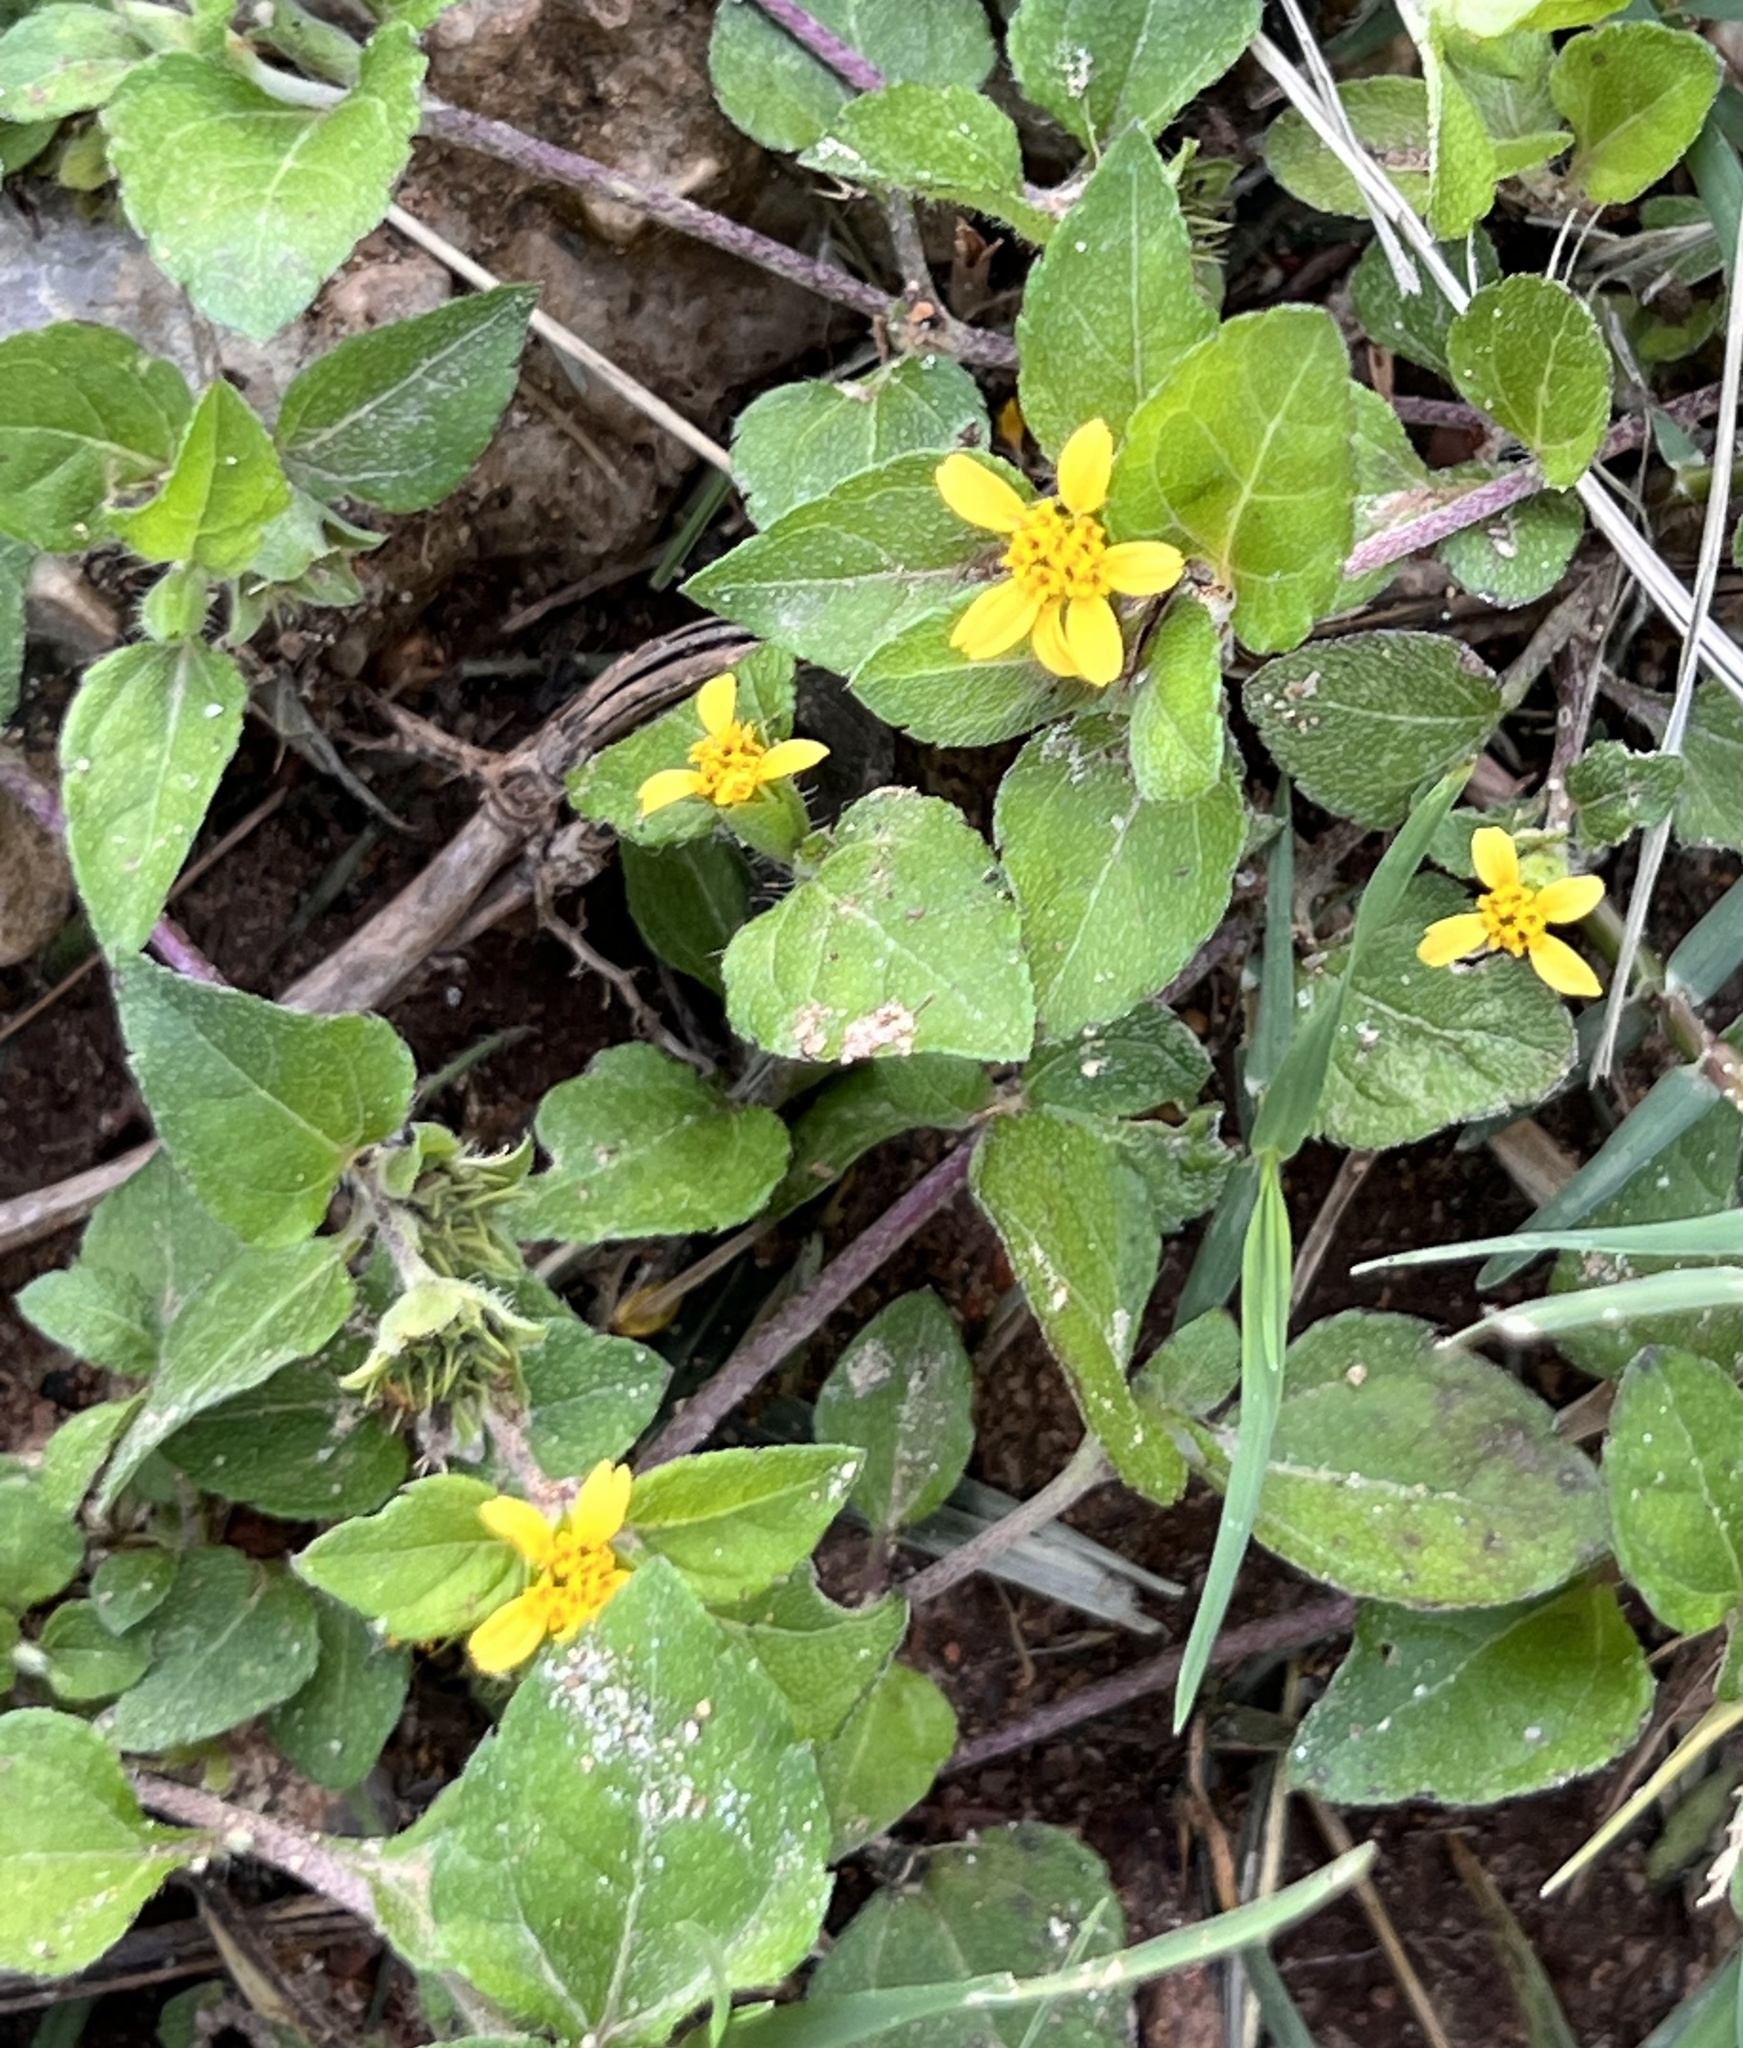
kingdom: Plantae
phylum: Tracheophyta
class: Magnoliopsida
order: Asterales
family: Asteraceae
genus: Calyptocarpus
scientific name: Calyptocarpus vialis
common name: Straggler daisy
